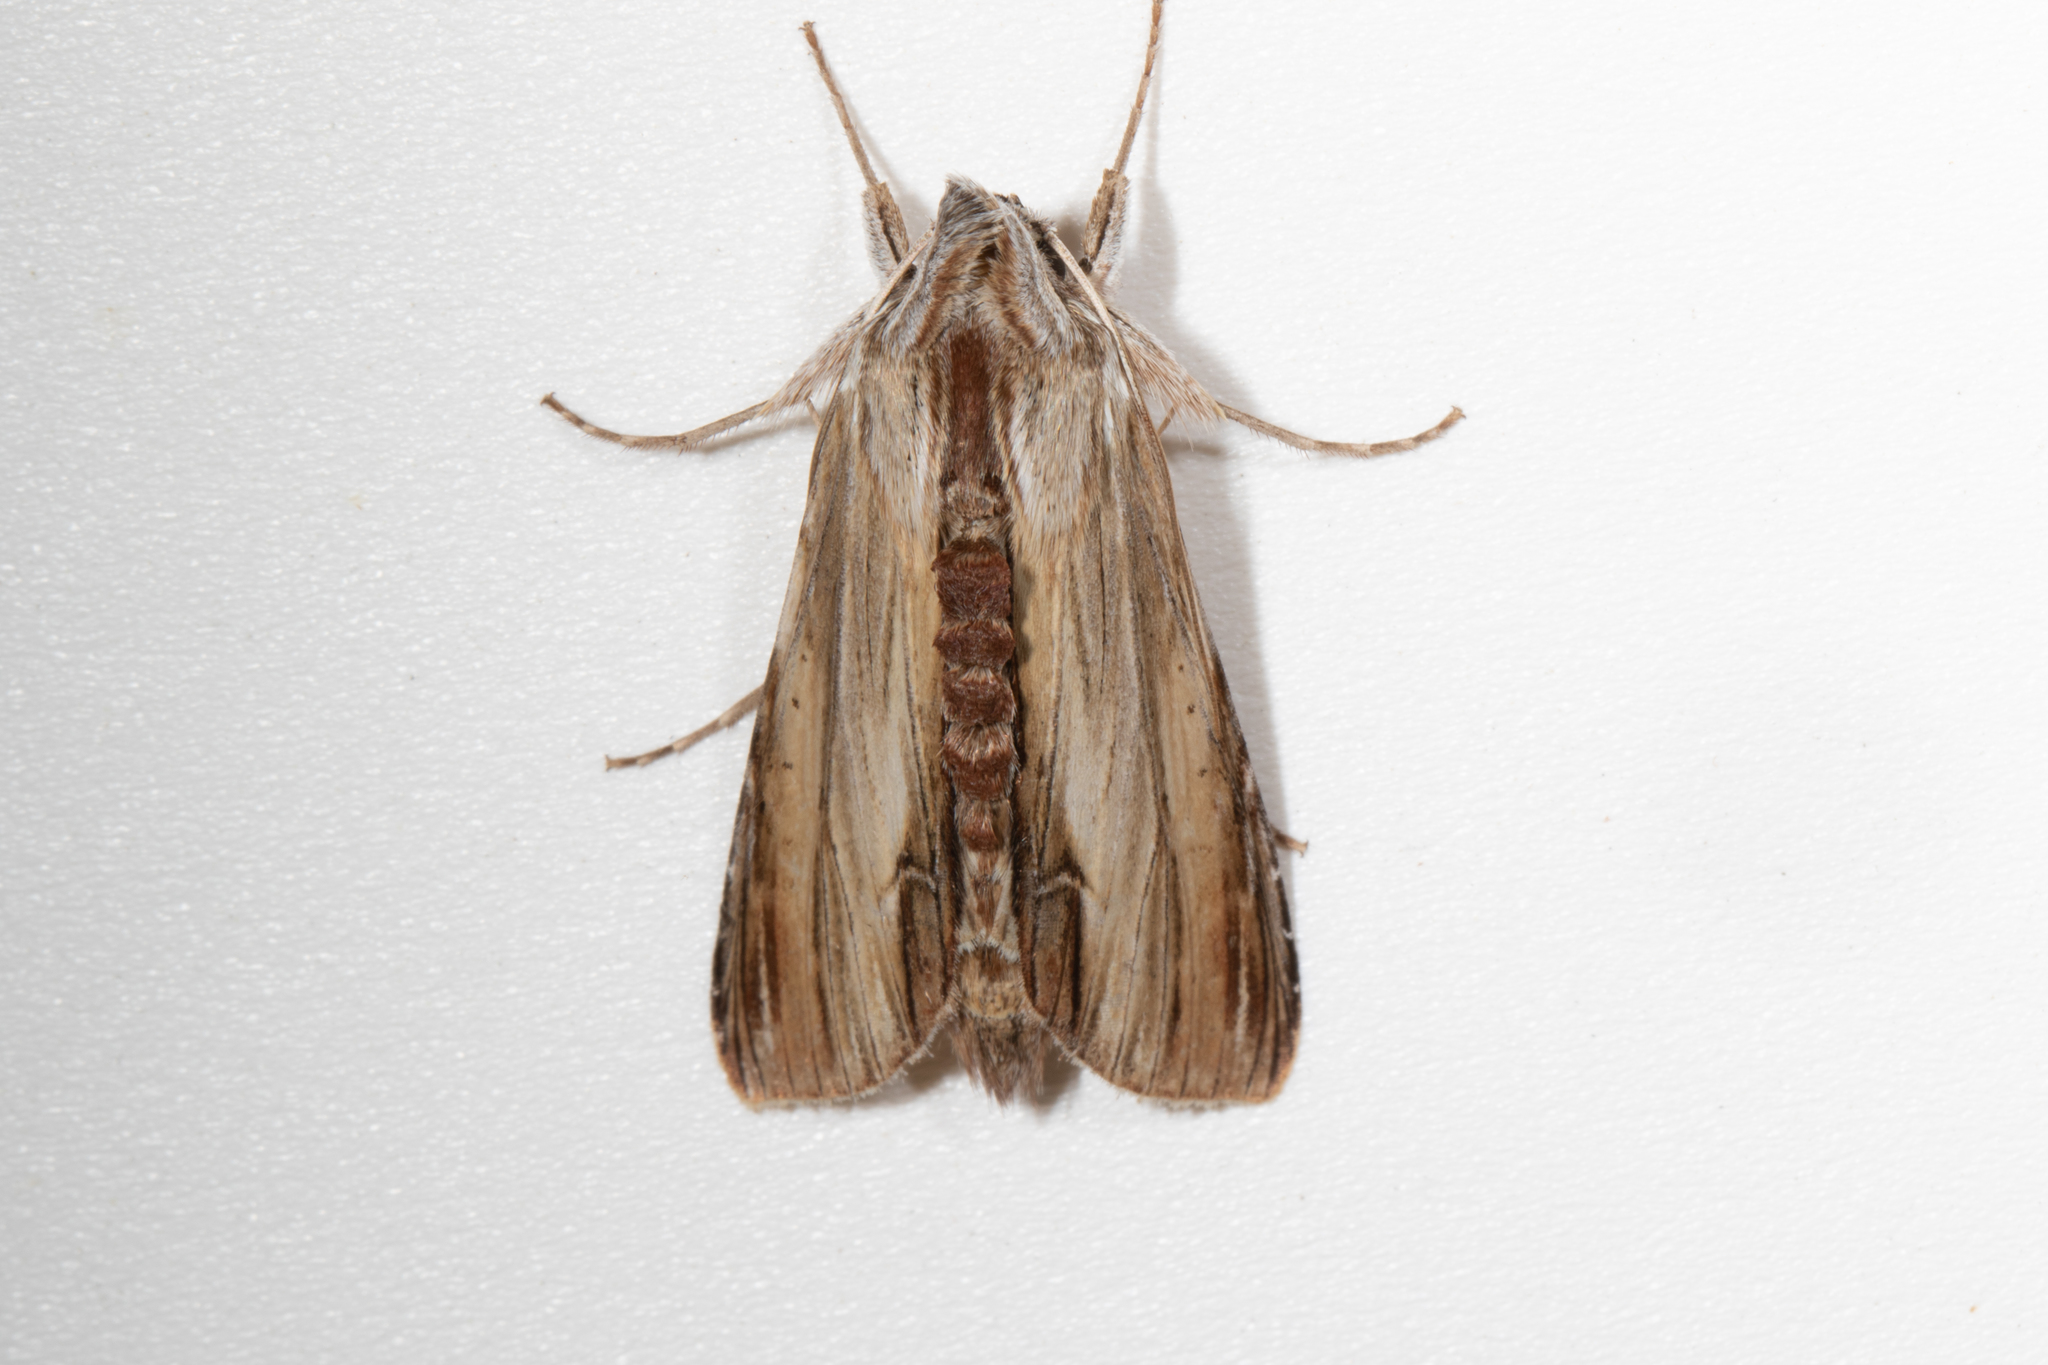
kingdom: Animalia
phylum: Arthropoda
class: Insecta
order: Lepidoptera
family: Noctuidae
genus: Cucullia
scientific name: Cucullia convexipennis
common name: Brown-hooded owlet
